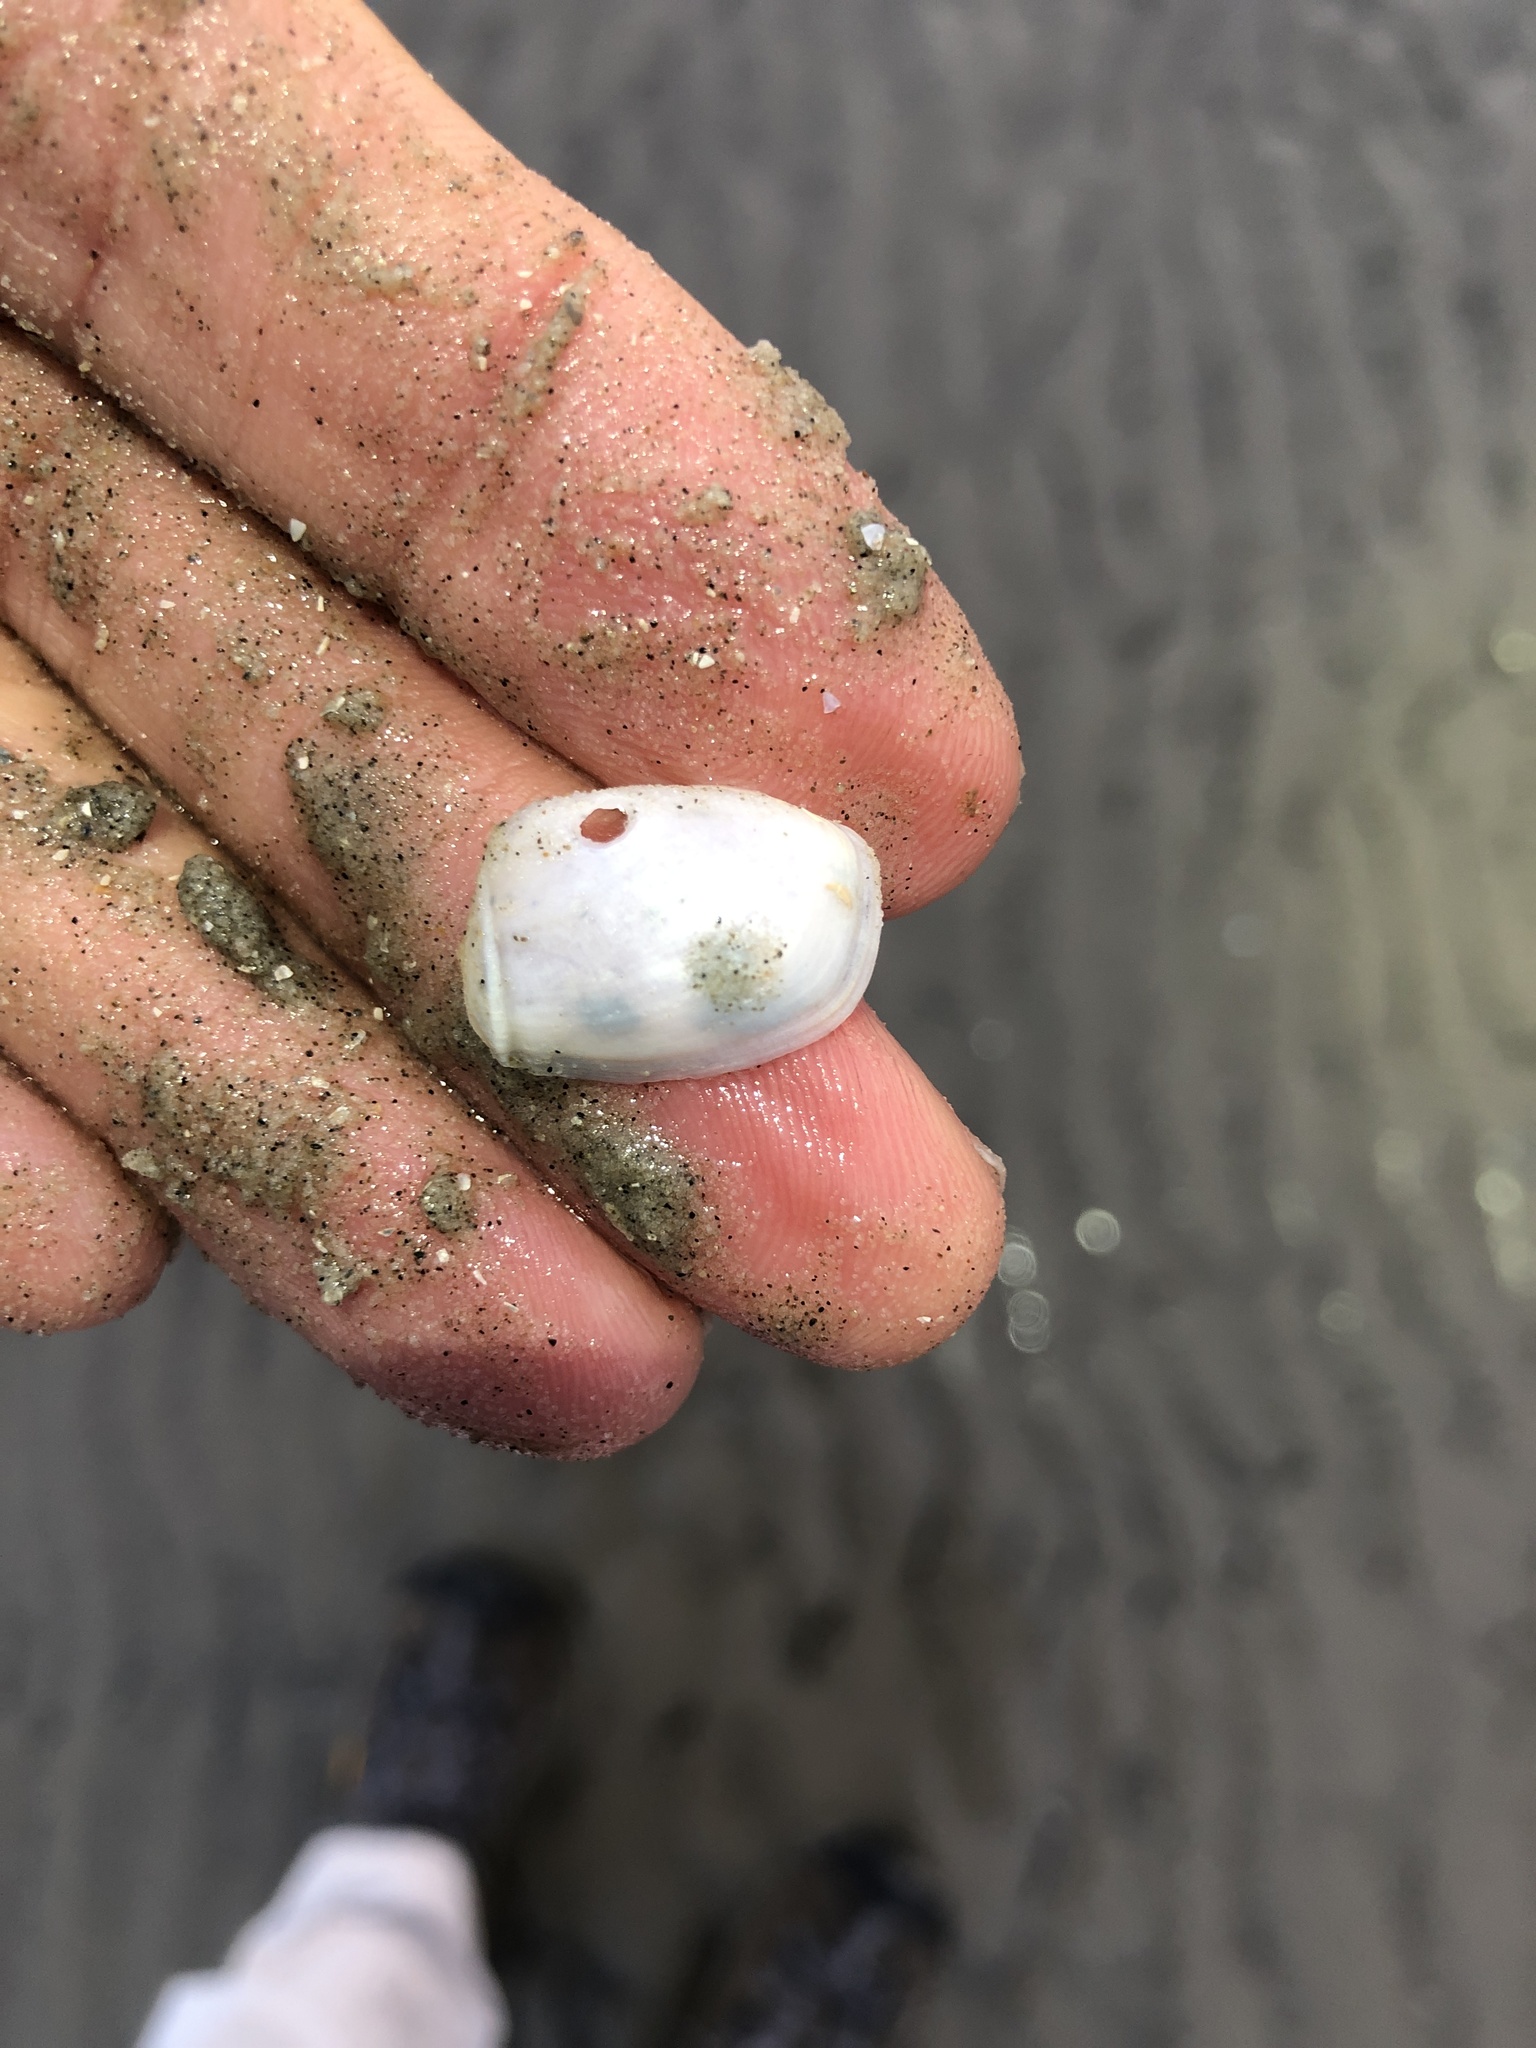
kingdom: Animalia
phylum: Mollusca
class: Bivalvia
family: Periplomatidae
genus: Periploma
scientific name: Periploma inequale
